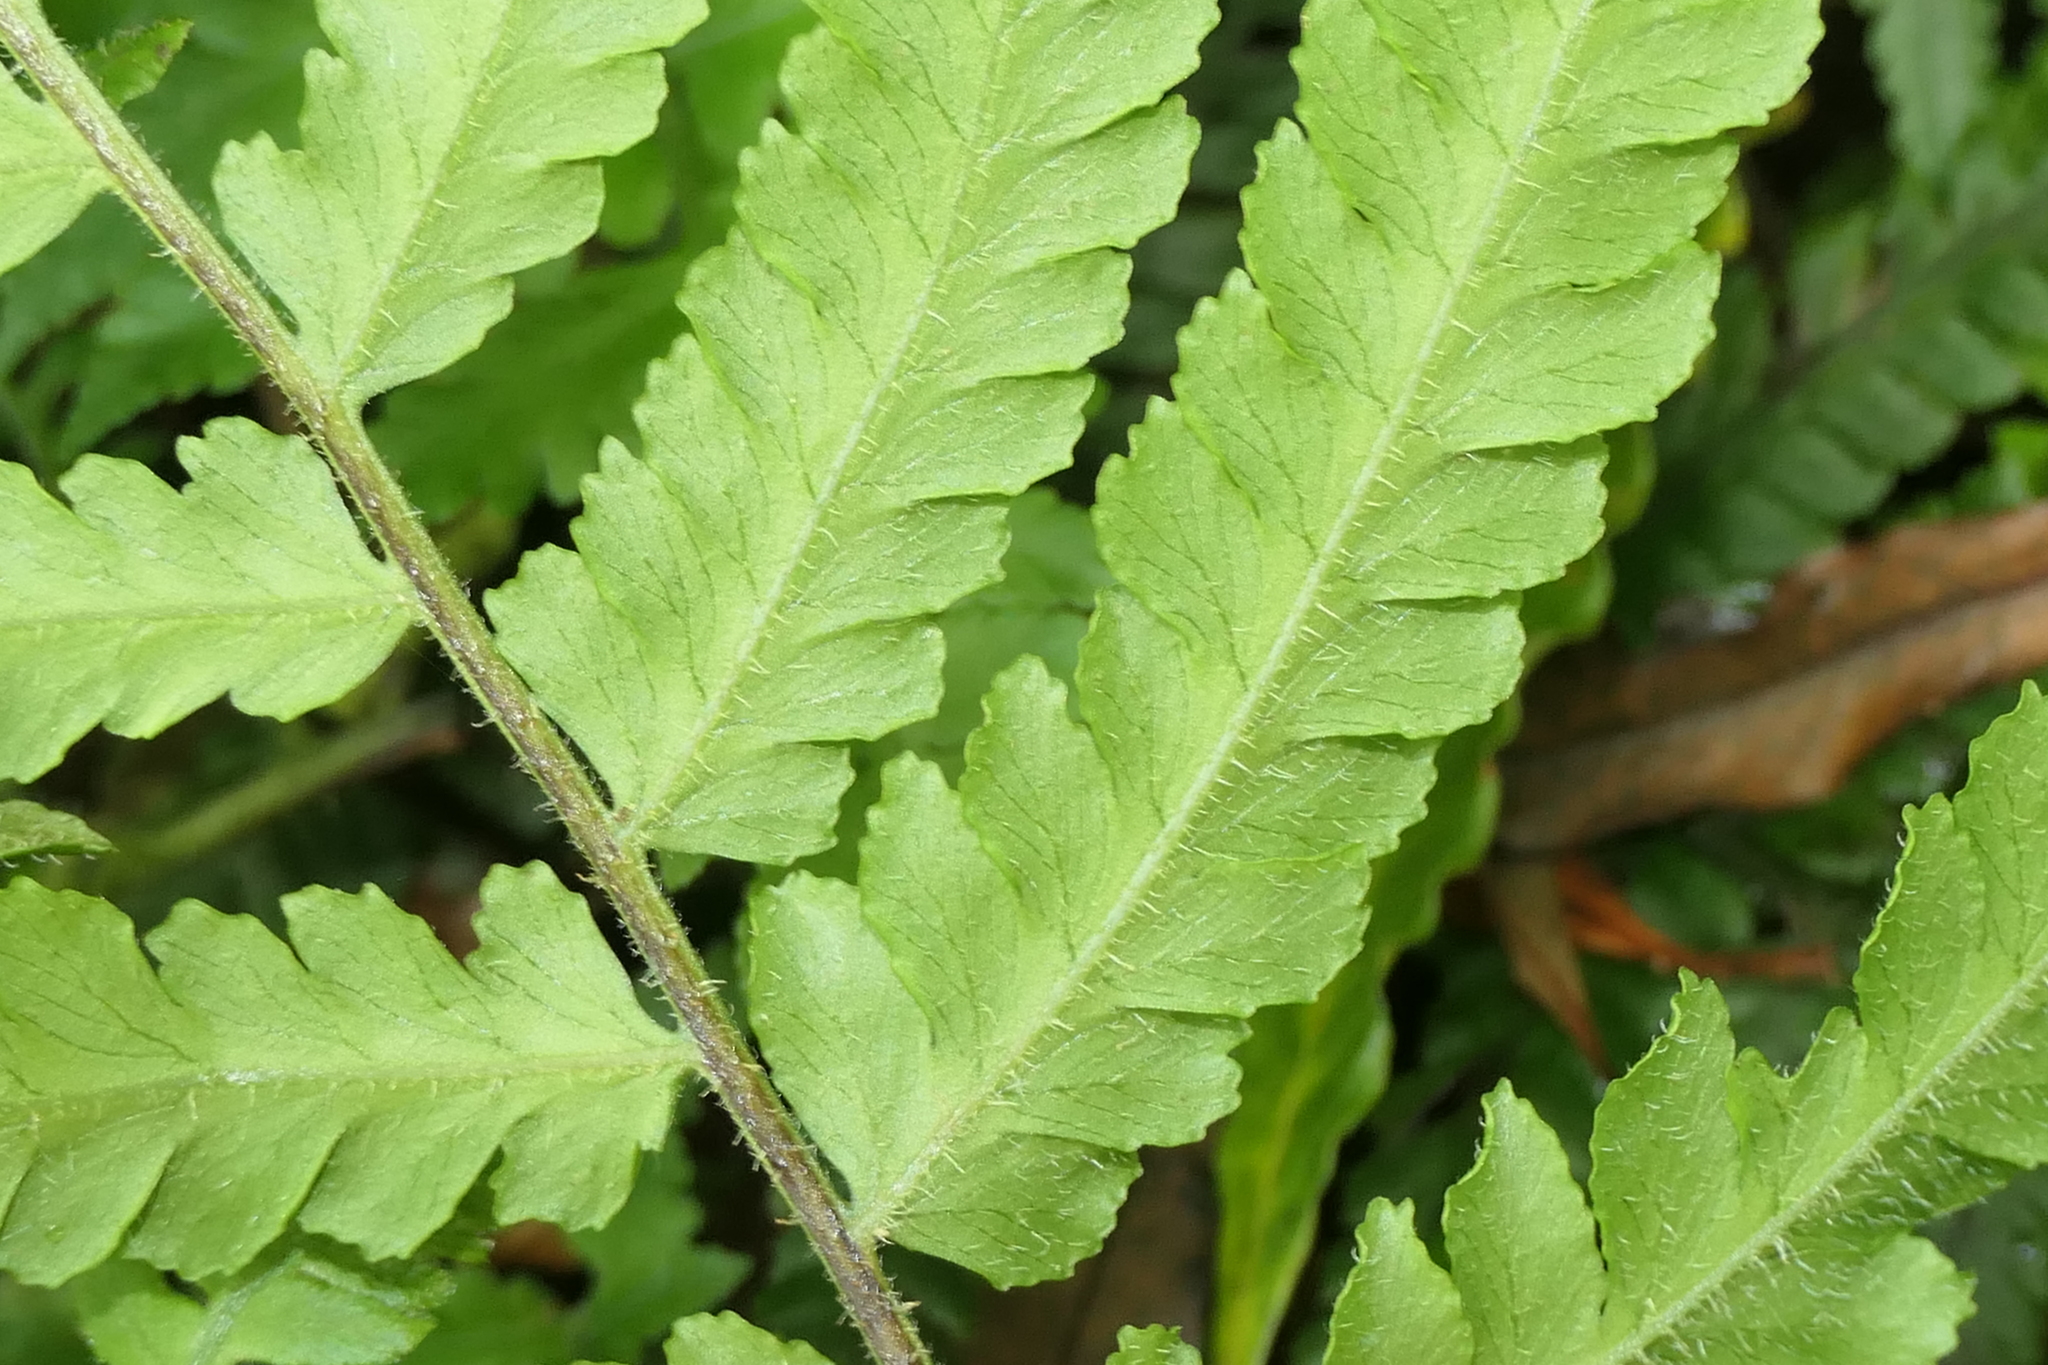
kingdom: Plantae
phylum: Tracheophyta
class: Polypodiopsida
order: Polypodiales
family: Athyriaceae
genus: Deparia
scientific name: Deparia petersenii
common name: Japanese false spleenwort
